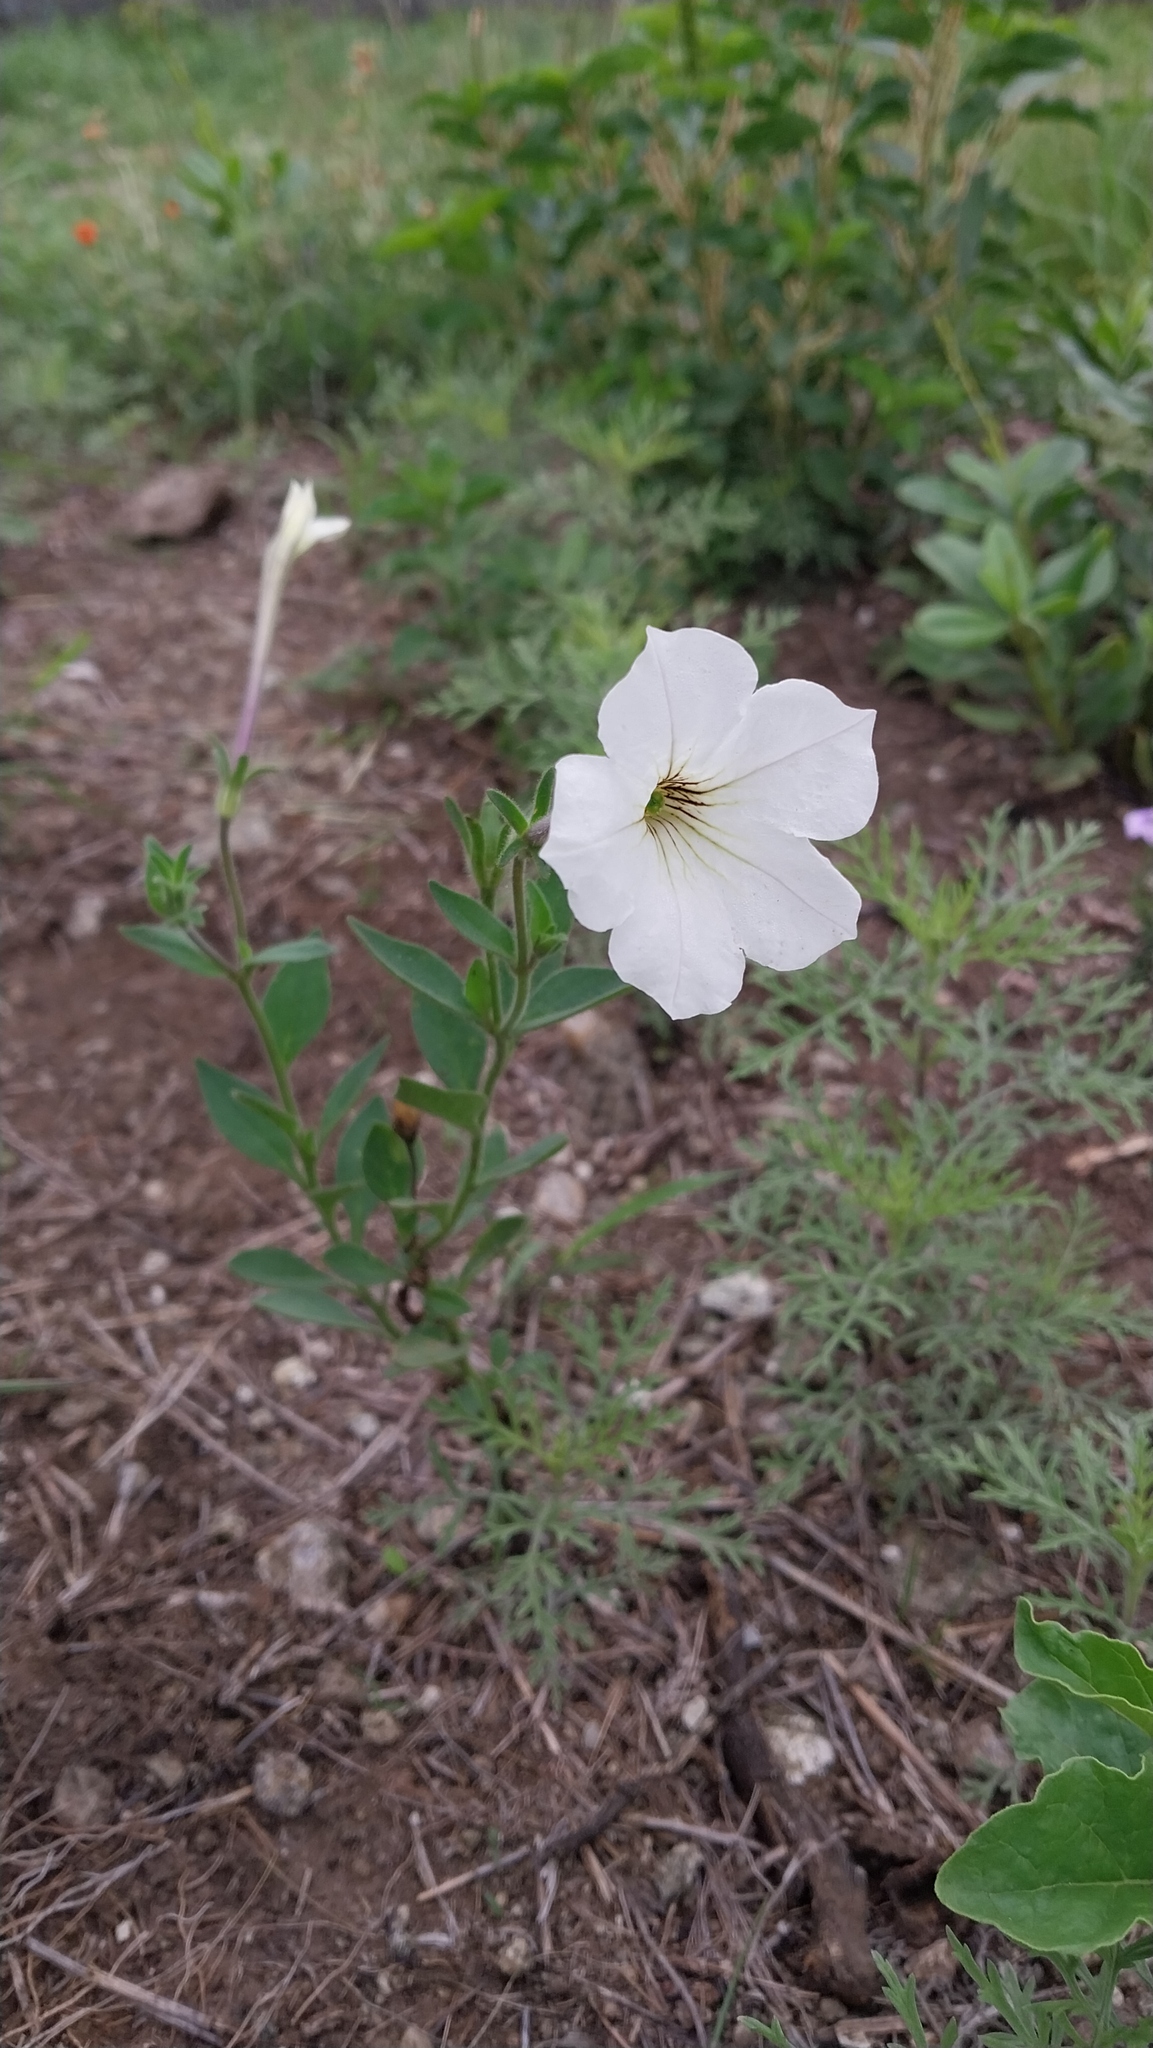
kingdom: Plantae
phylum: Tracheophyta
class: Magnoliopsida
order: Solanales
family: Solanaceae
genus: Petunia
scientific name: Petunia axillaris
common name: Large white petunia
